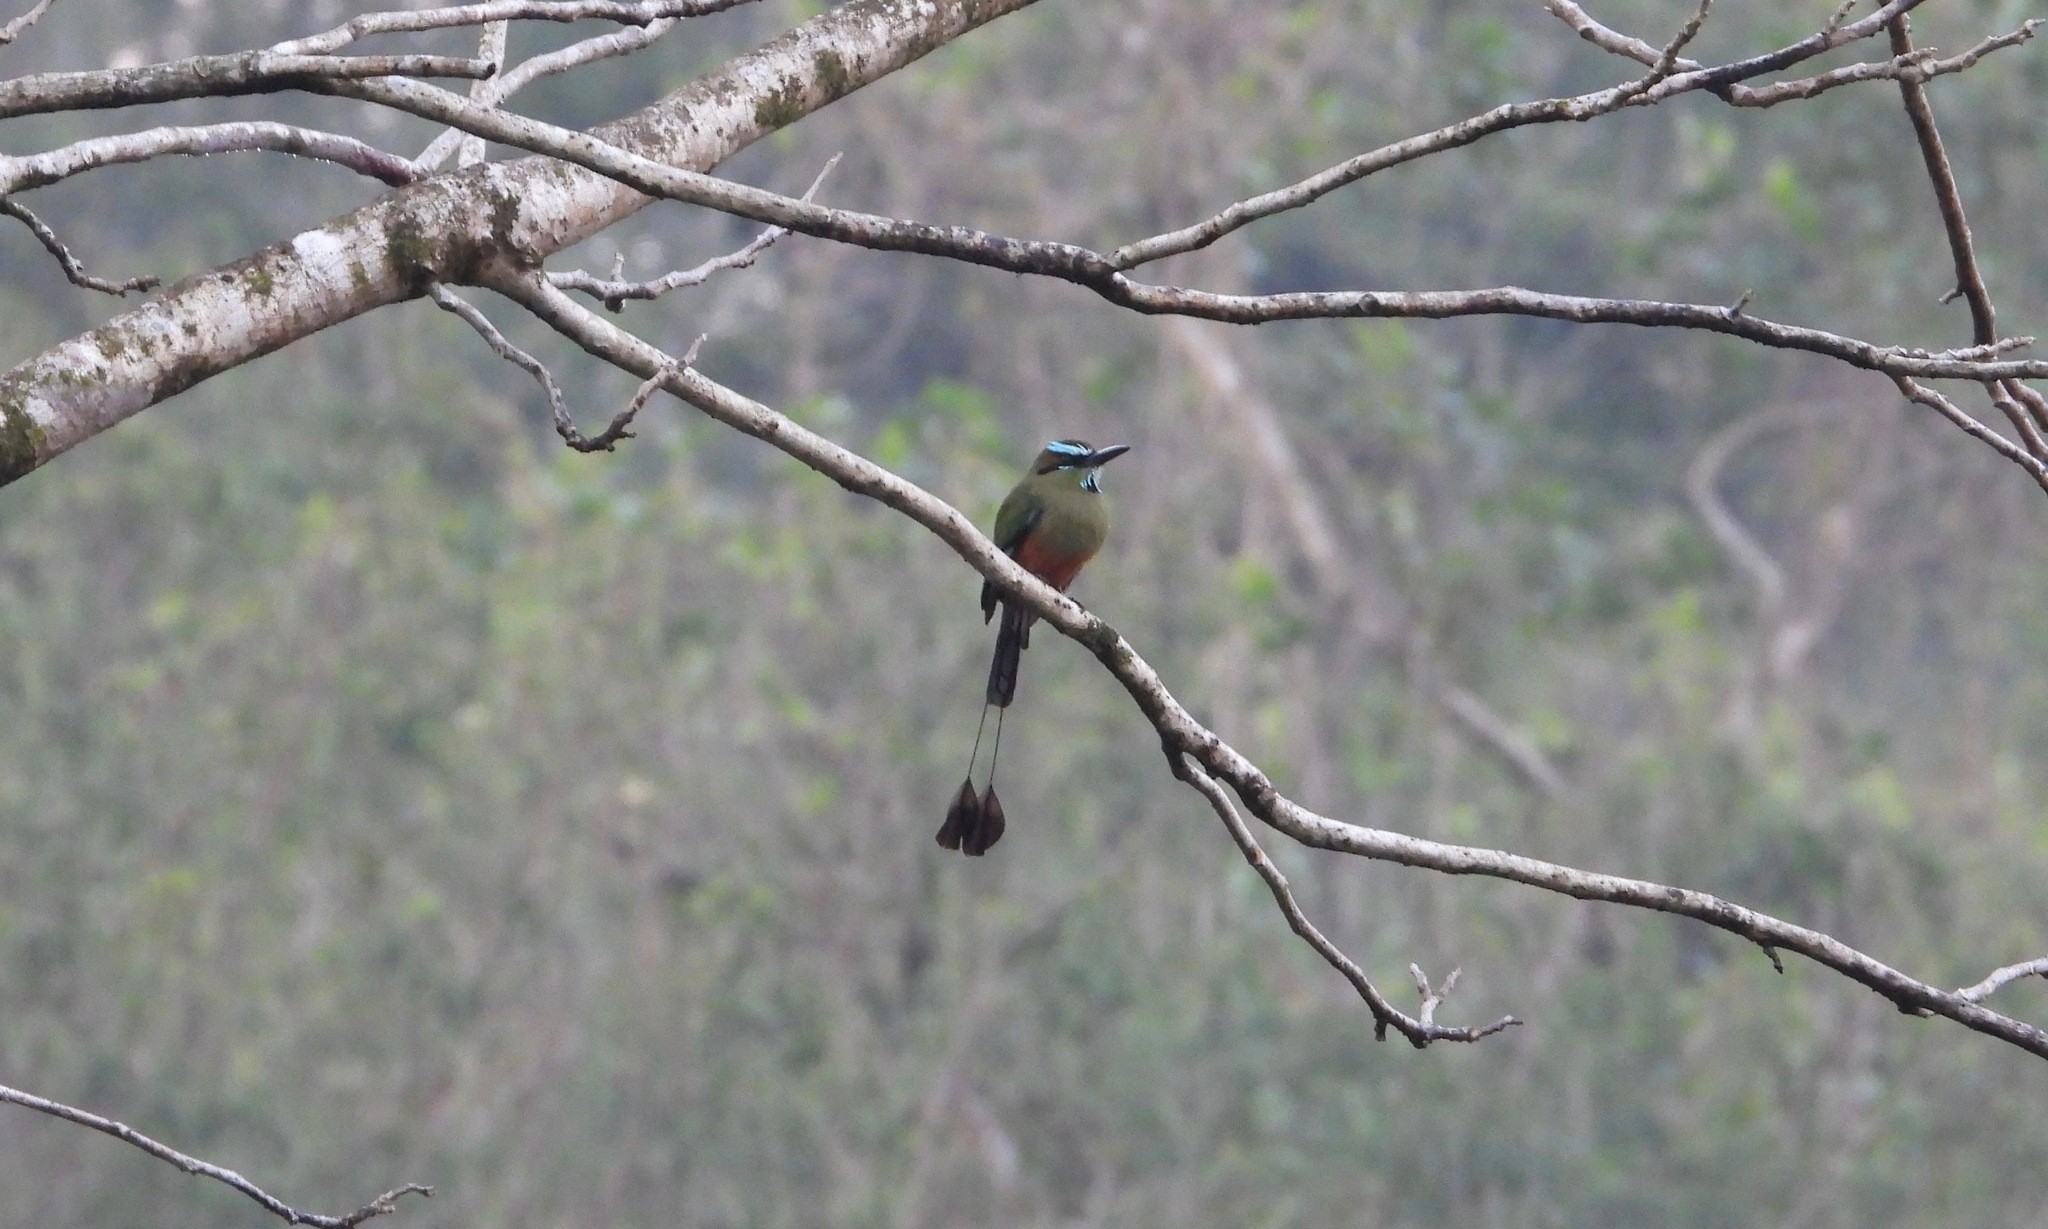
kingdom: Animalia
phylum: Chordata
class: Aves
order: Coraciiformes
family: Momotidae
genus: Eumomota
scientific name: Eumomota superciliosa
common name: Turquoise-browed motmot
